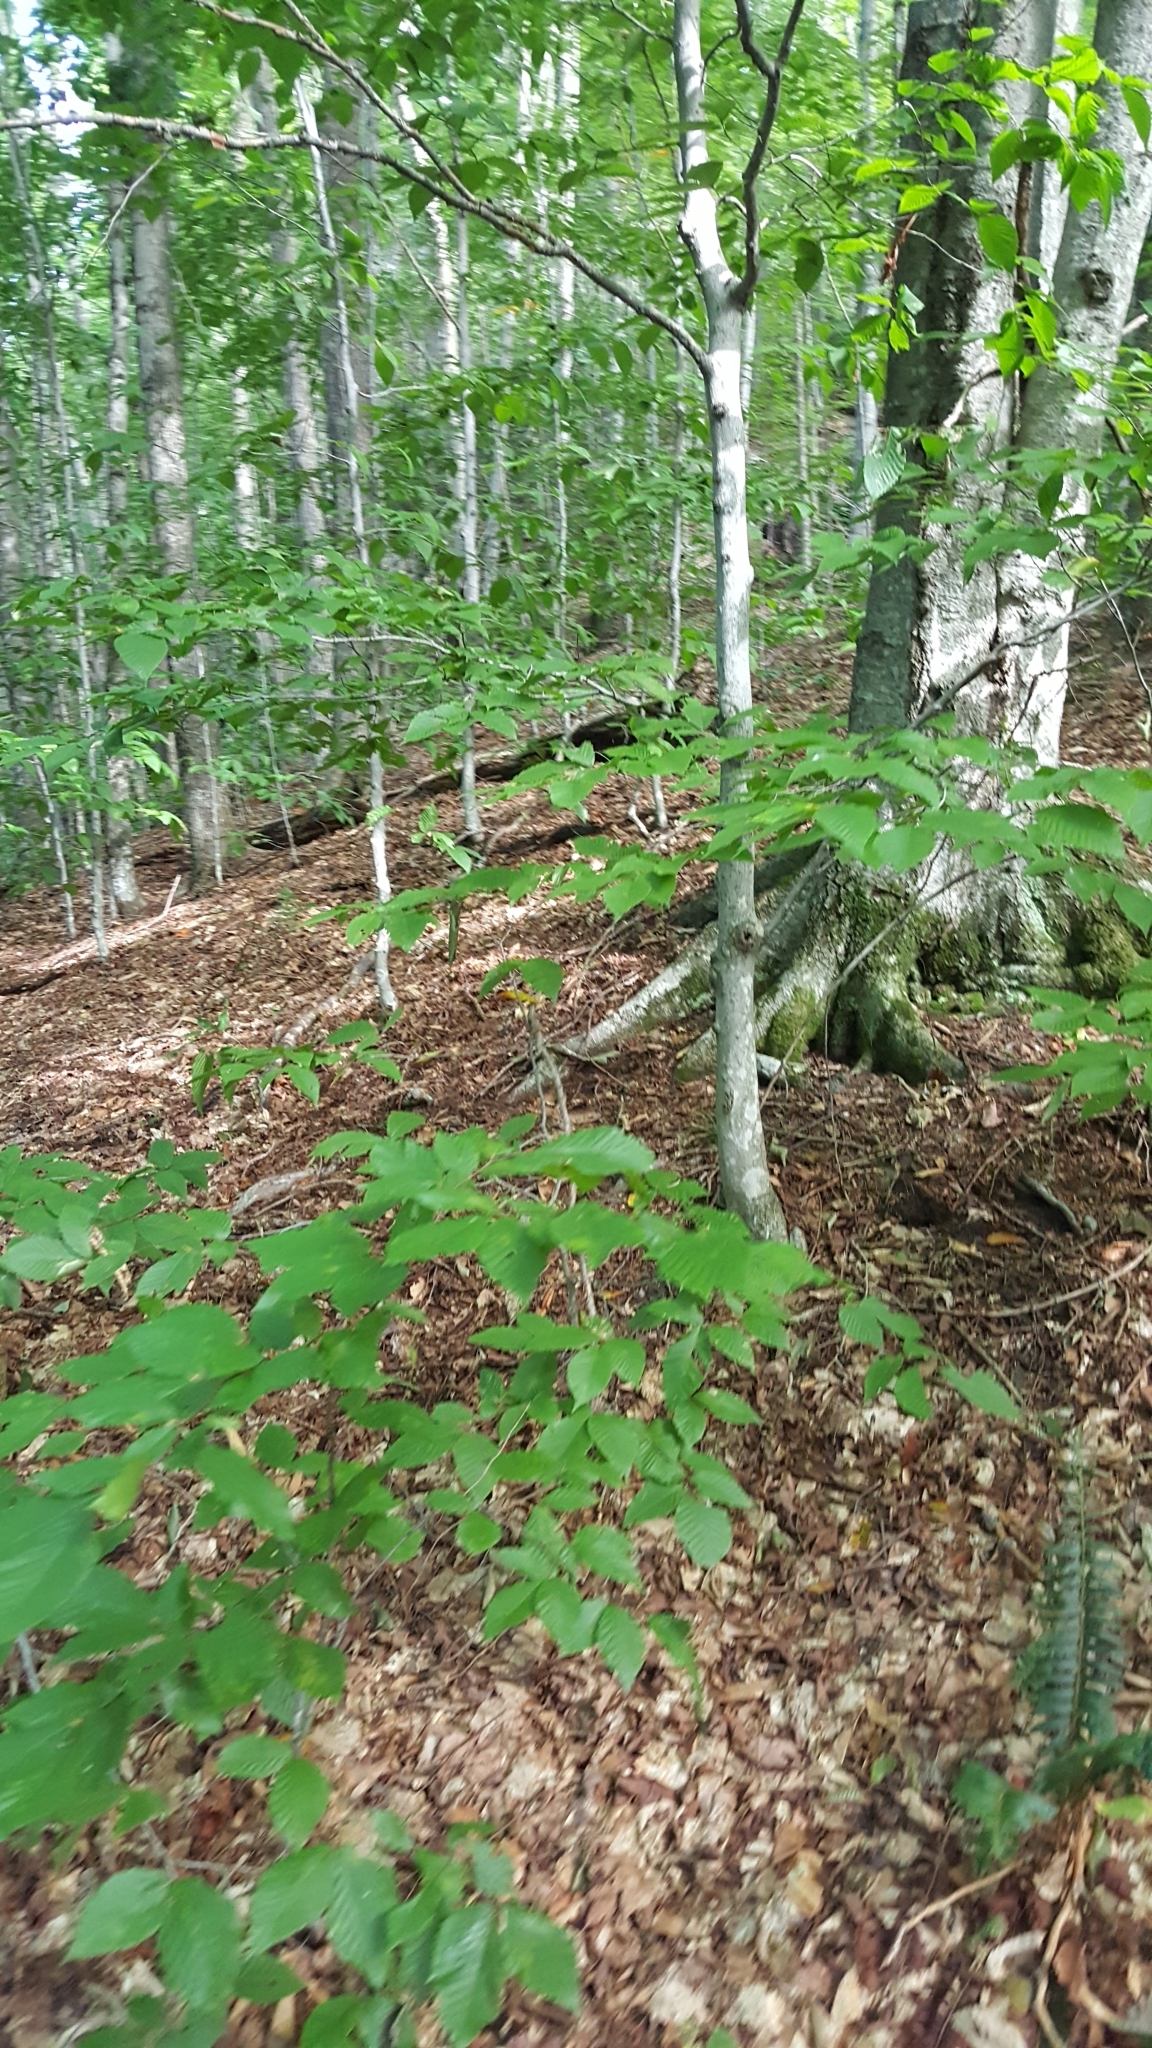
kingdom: Plantae
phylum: Tracheophyta
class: Magnoliopsida
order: Fagales
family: Fagaceae
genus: Fagus
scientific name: Fagus grandifolia
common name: American beech
